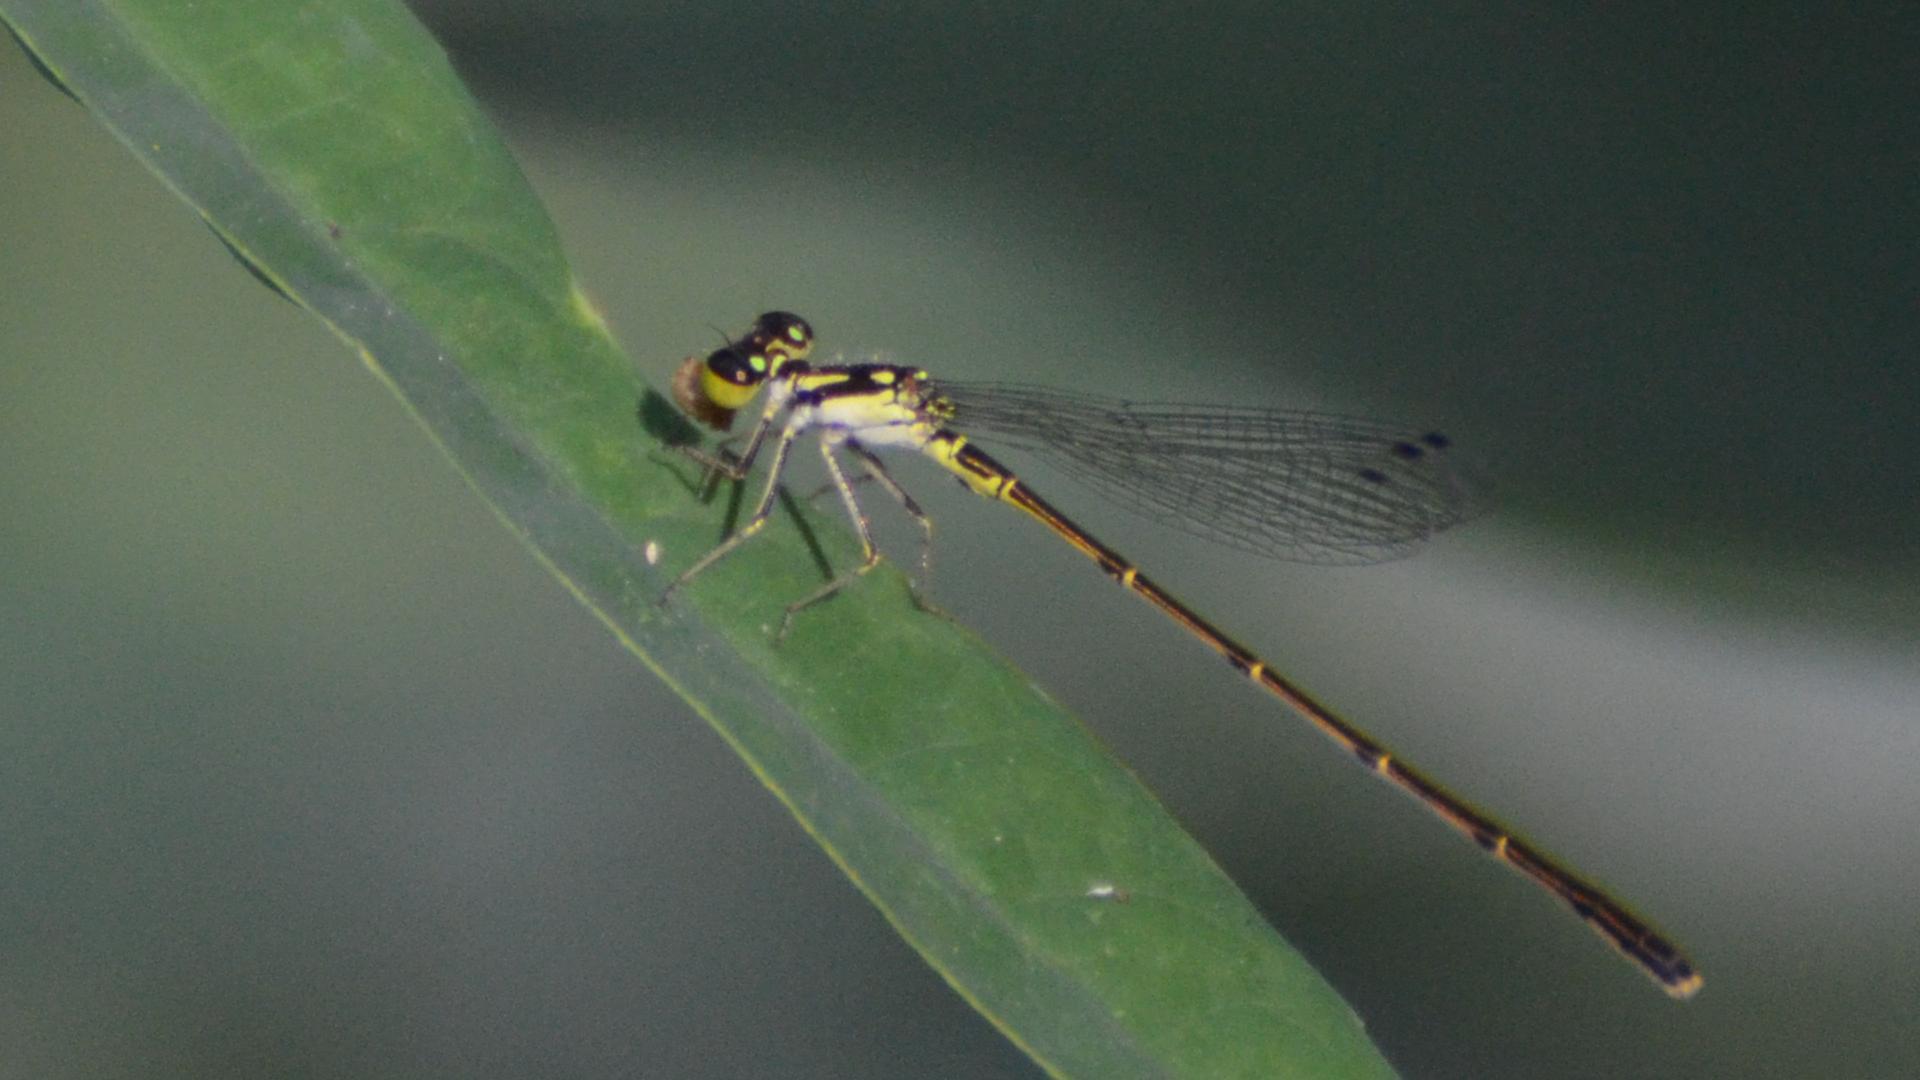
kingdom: Animalia
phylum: Arthropoda
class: Insecta
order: Odonata
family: Coenagrionidae
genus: Ischnura
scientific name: Ischnura posita
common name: Fragile forktail
